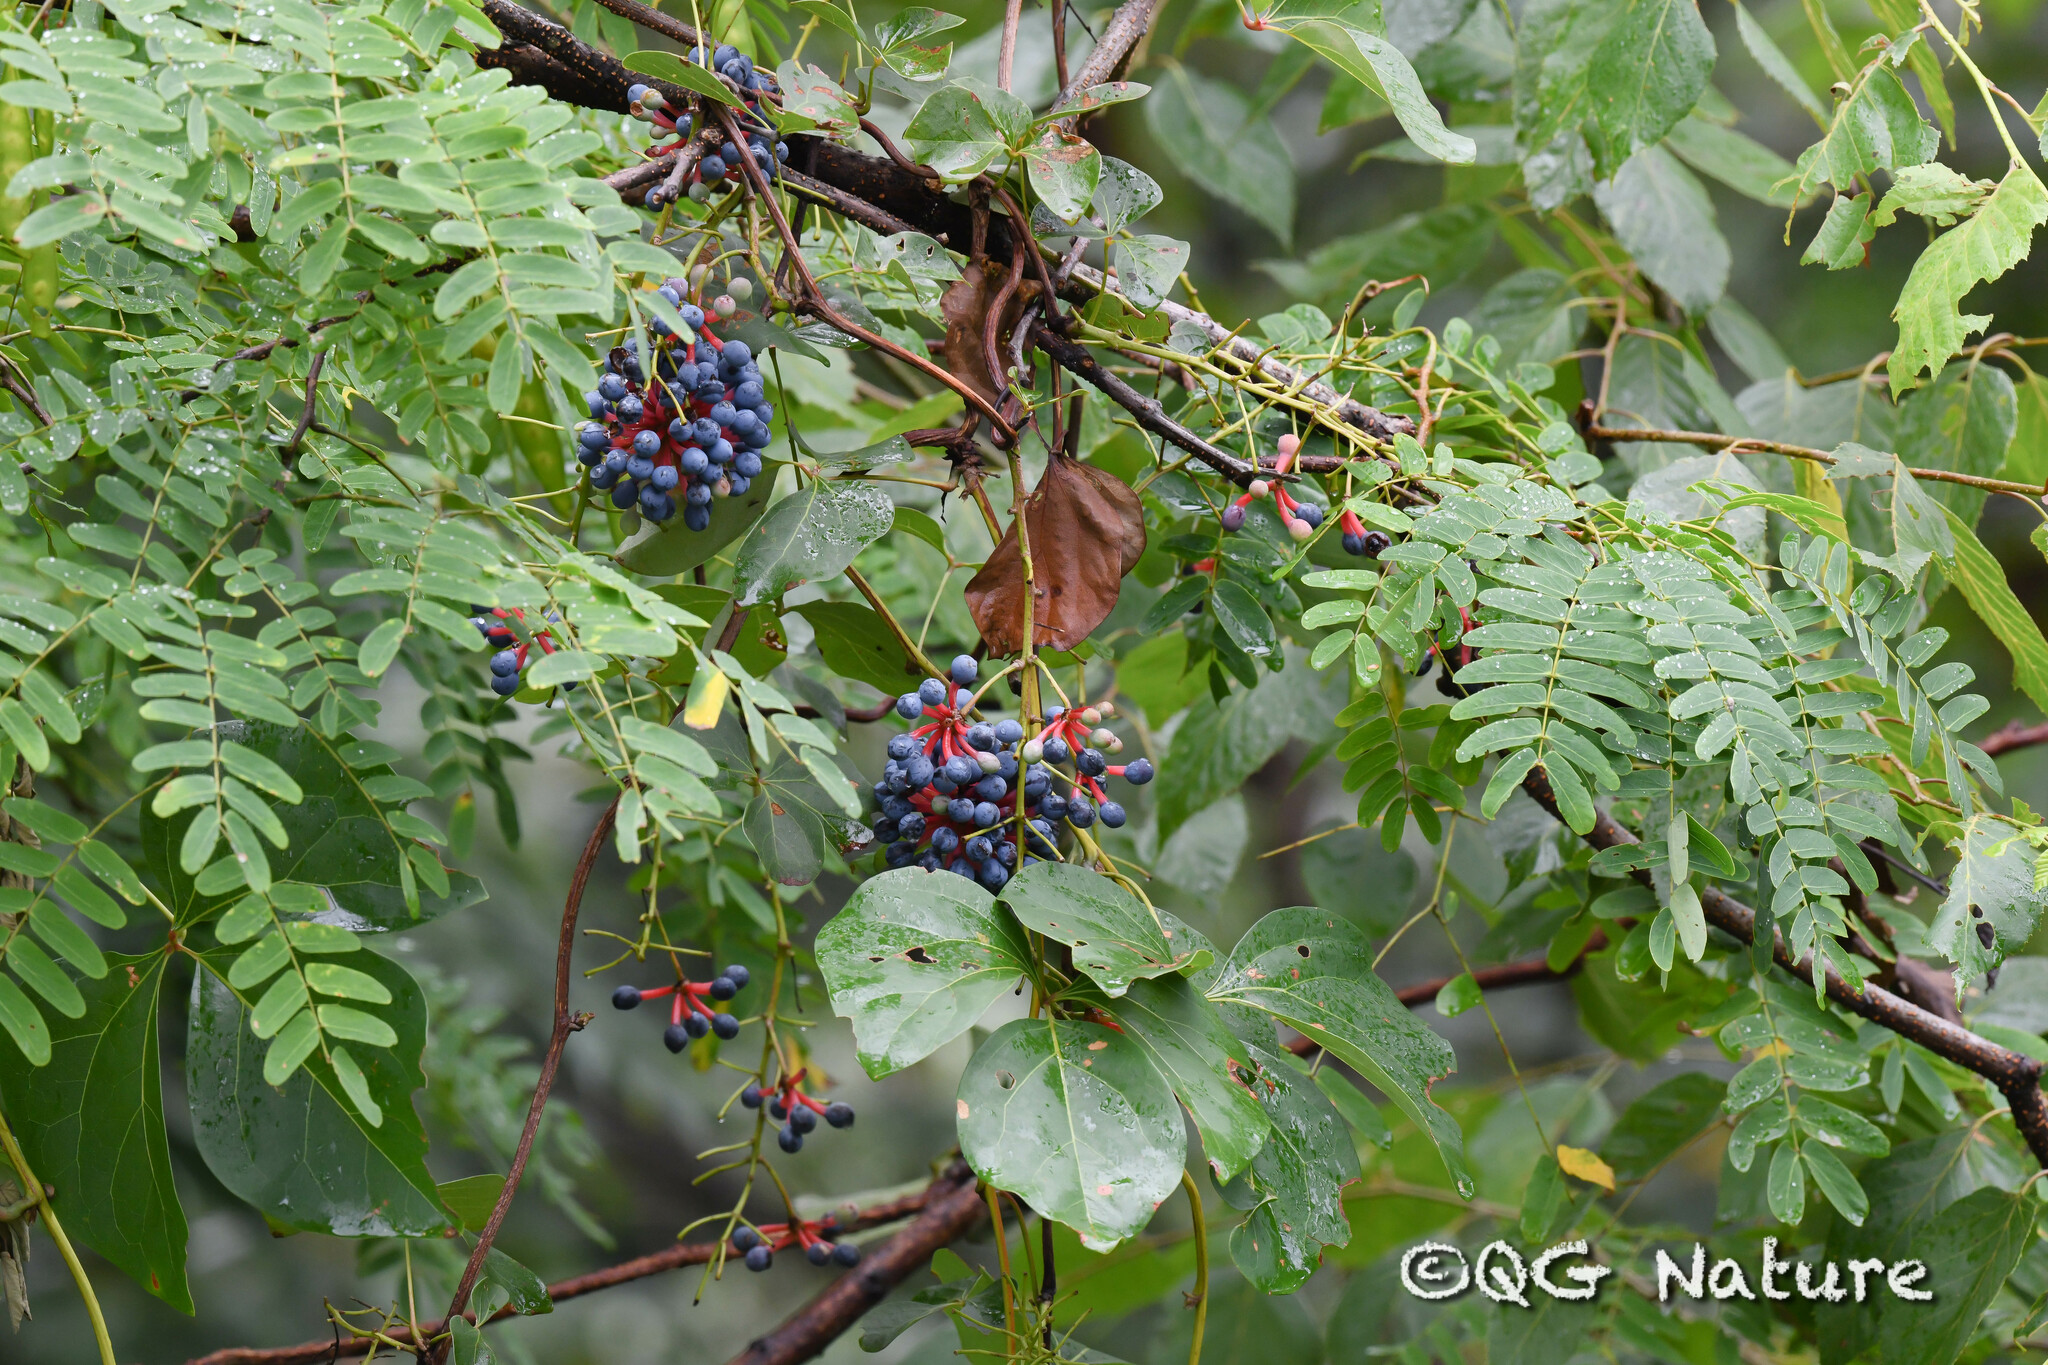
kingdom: Plantae
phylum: Tracheophyta
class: Magnoliopsida
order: Ranunculales
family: Lardizabalaceae
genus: Sargentodoxa
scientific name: Sargentodoxa cuneata
